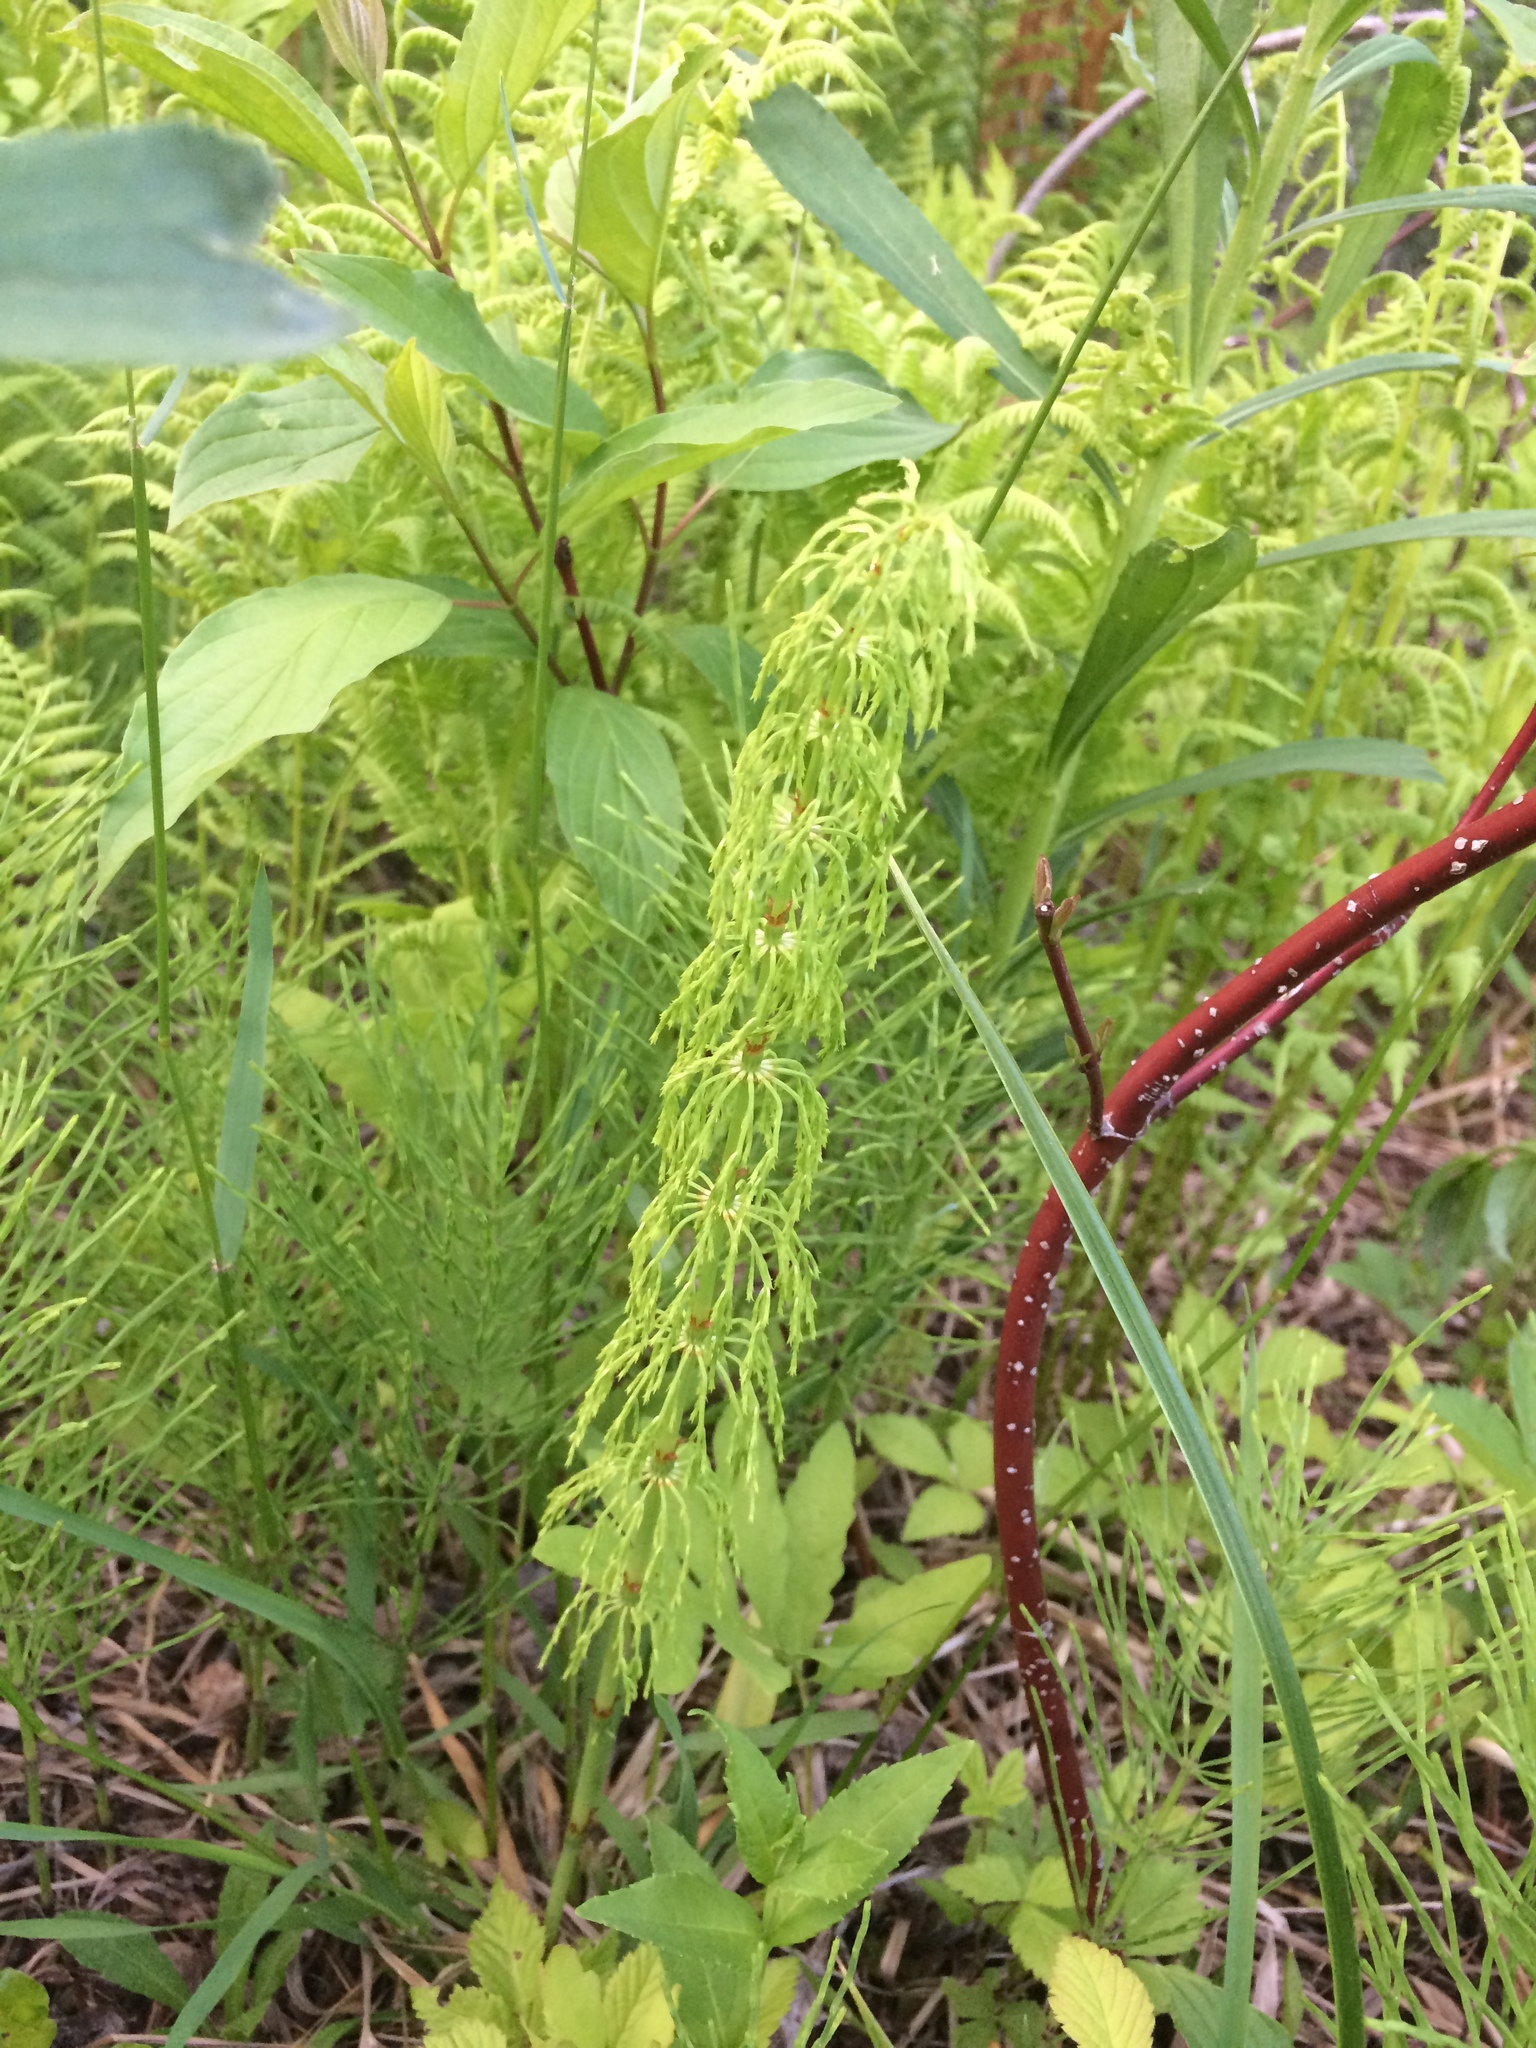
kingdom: Plantae
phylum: Tracheophyta
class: Polypodiopsida
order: Equisetales
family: Equisetaceae
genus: Equisetum
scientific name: Equisetum sylvaticum
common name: Wood horsetail
